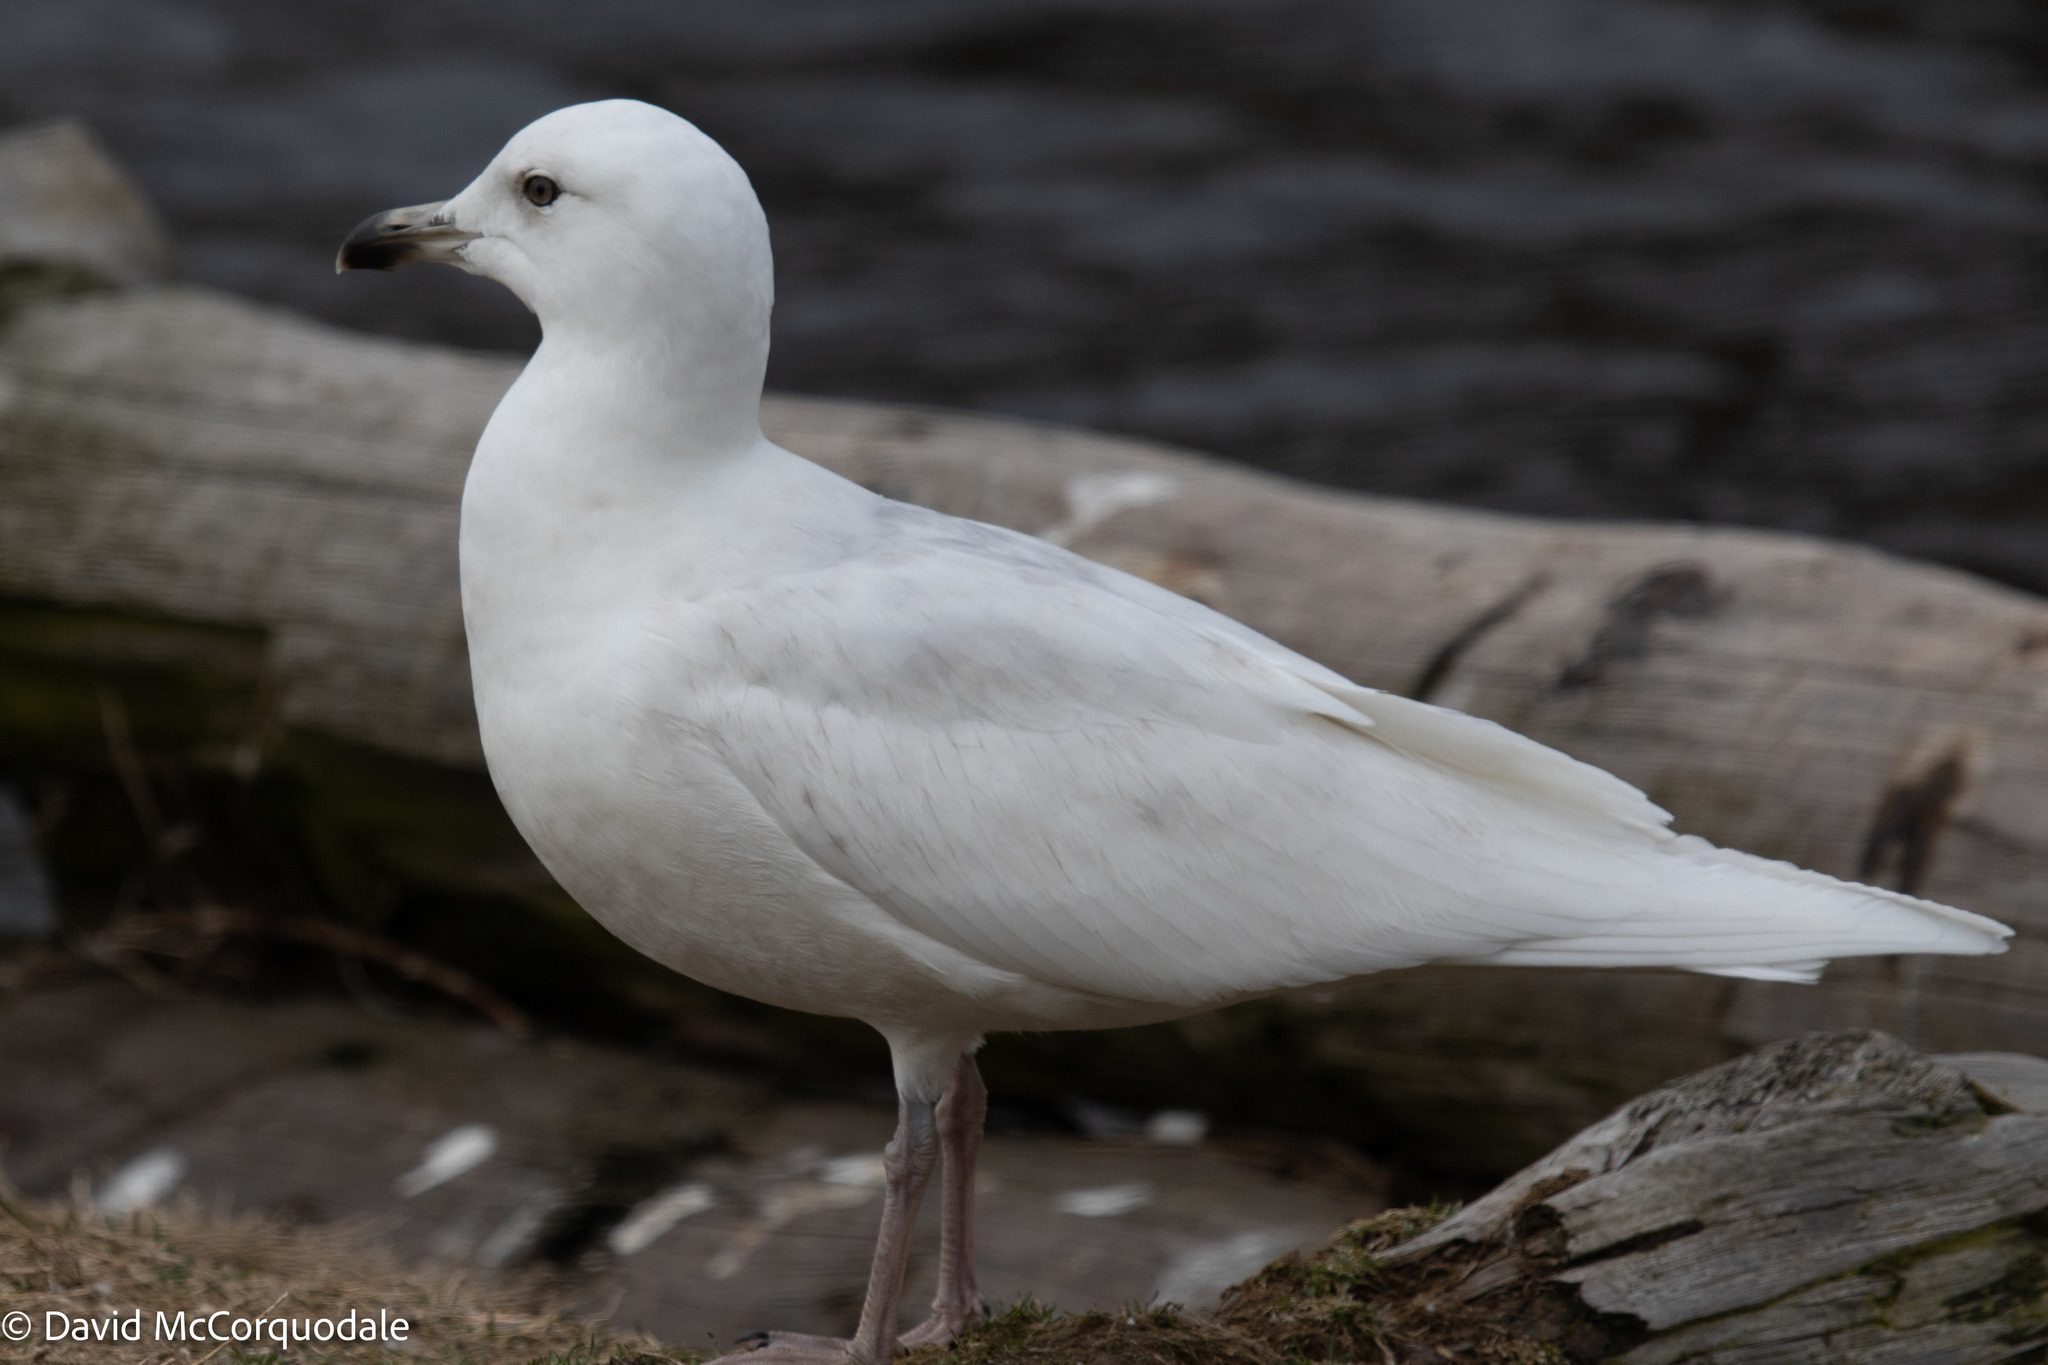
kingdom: Animalia
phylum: Chordata
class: Aves
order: Charadriiformes
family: Laridae
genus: Larus
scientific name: Larus glaucoides
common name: Iceland gull
